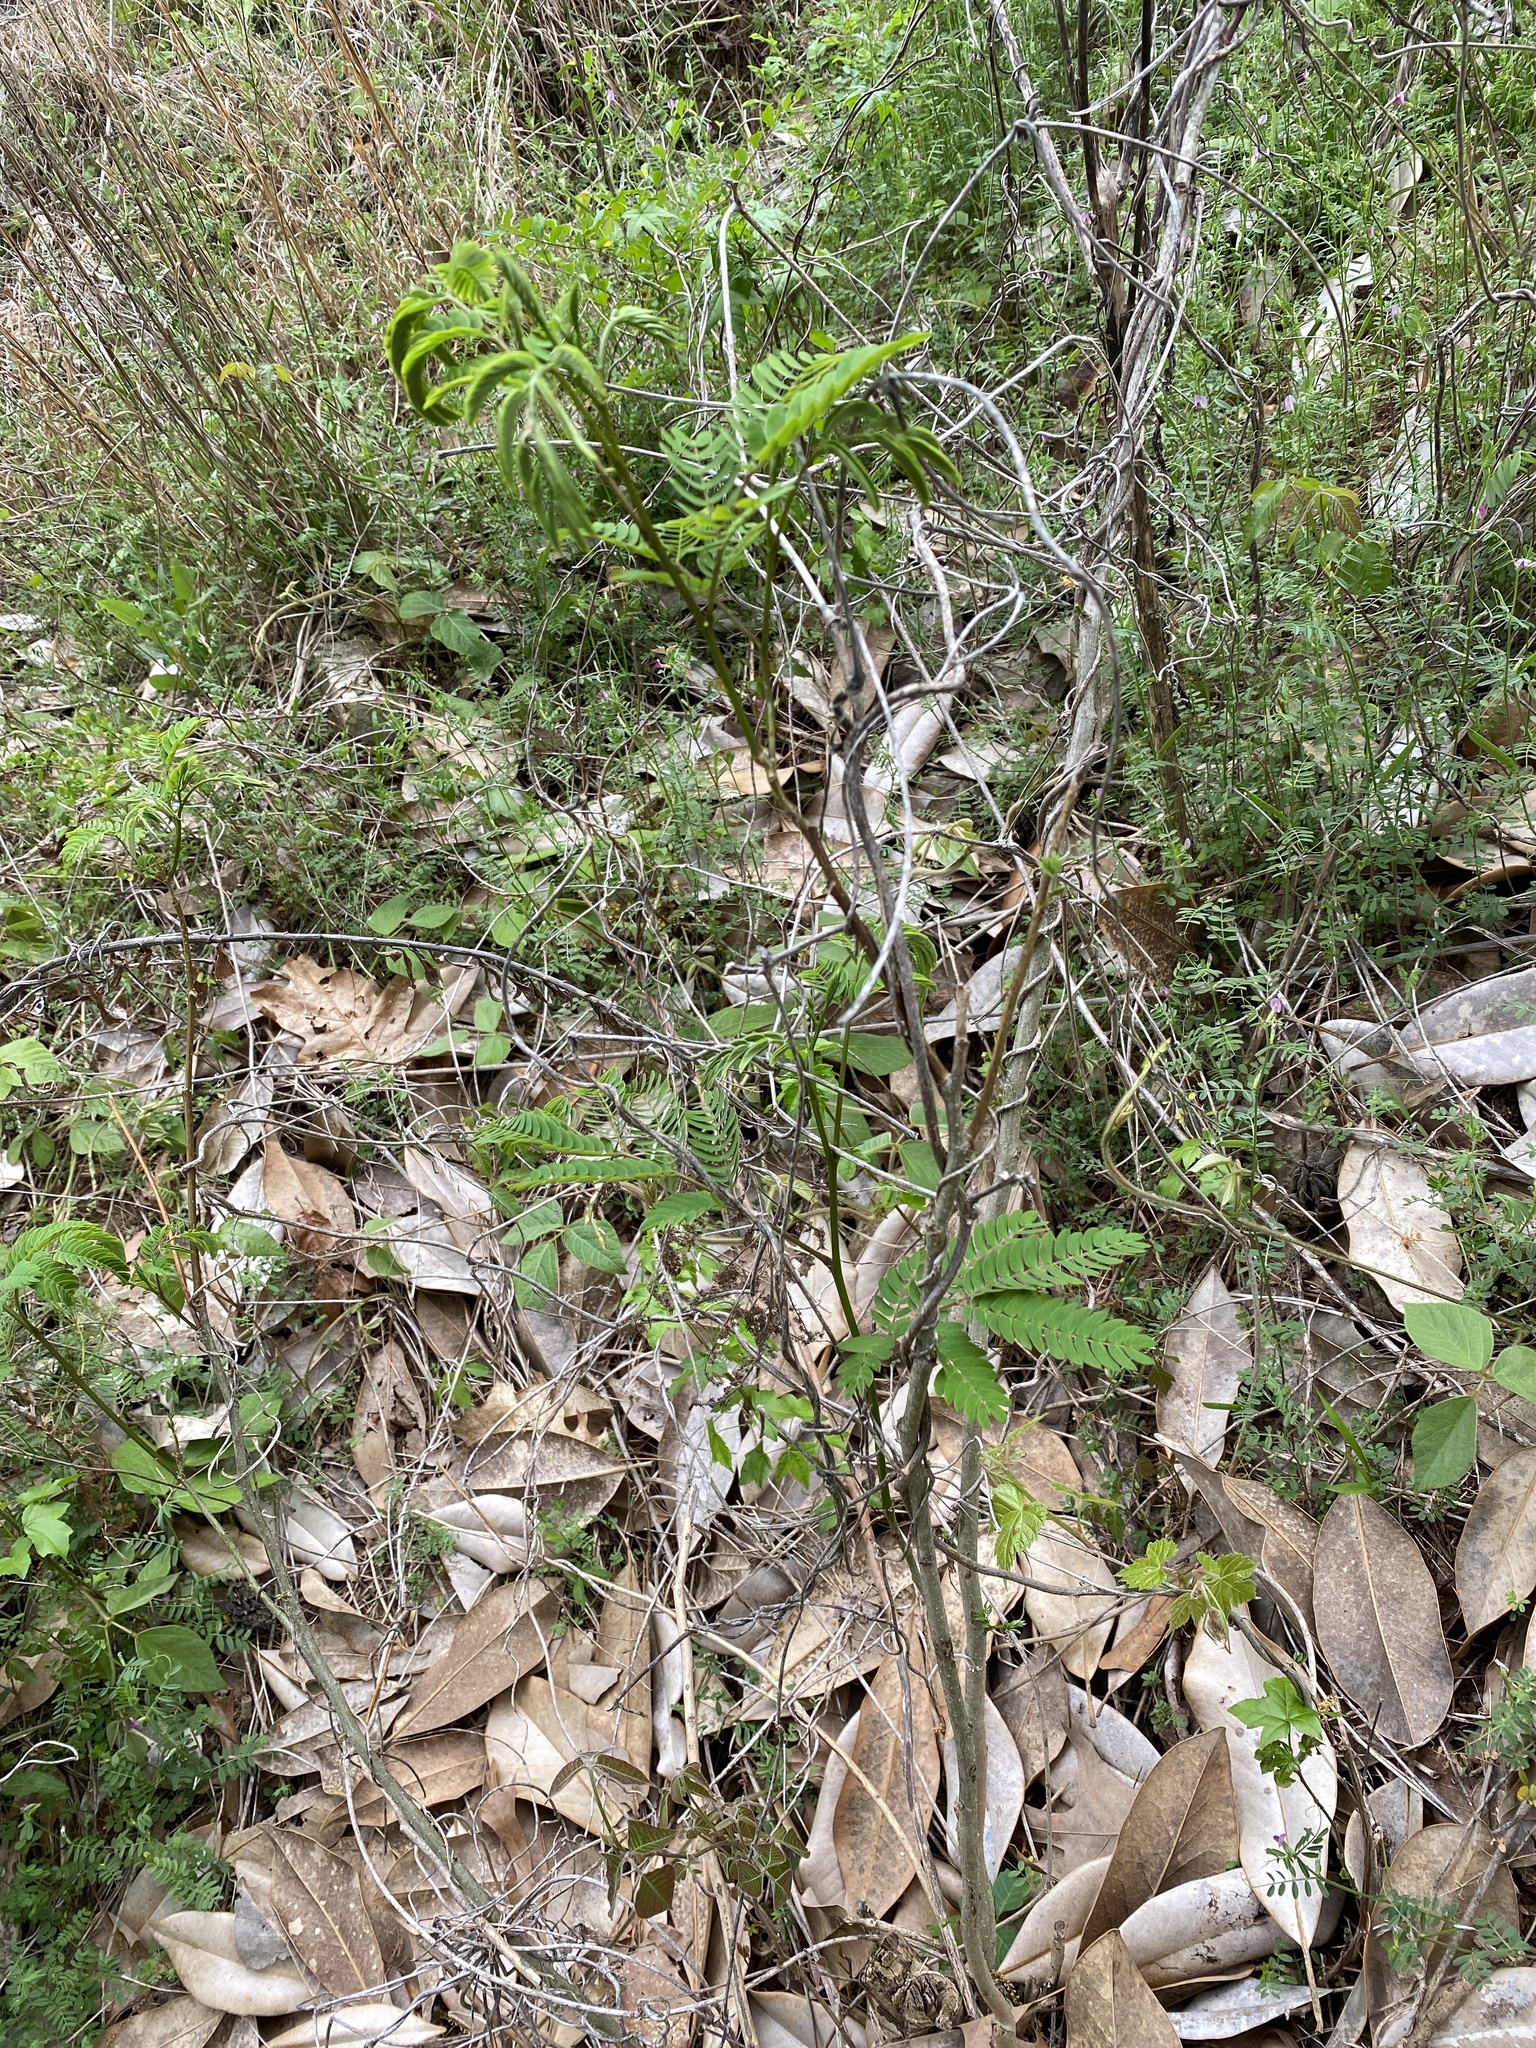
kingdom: Plantae
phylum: Tracheophyta
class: Magnoliopsida
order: Fabales
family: Fabaceae
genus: Albizia
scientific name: Albizia julibrissin
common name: Silktree
